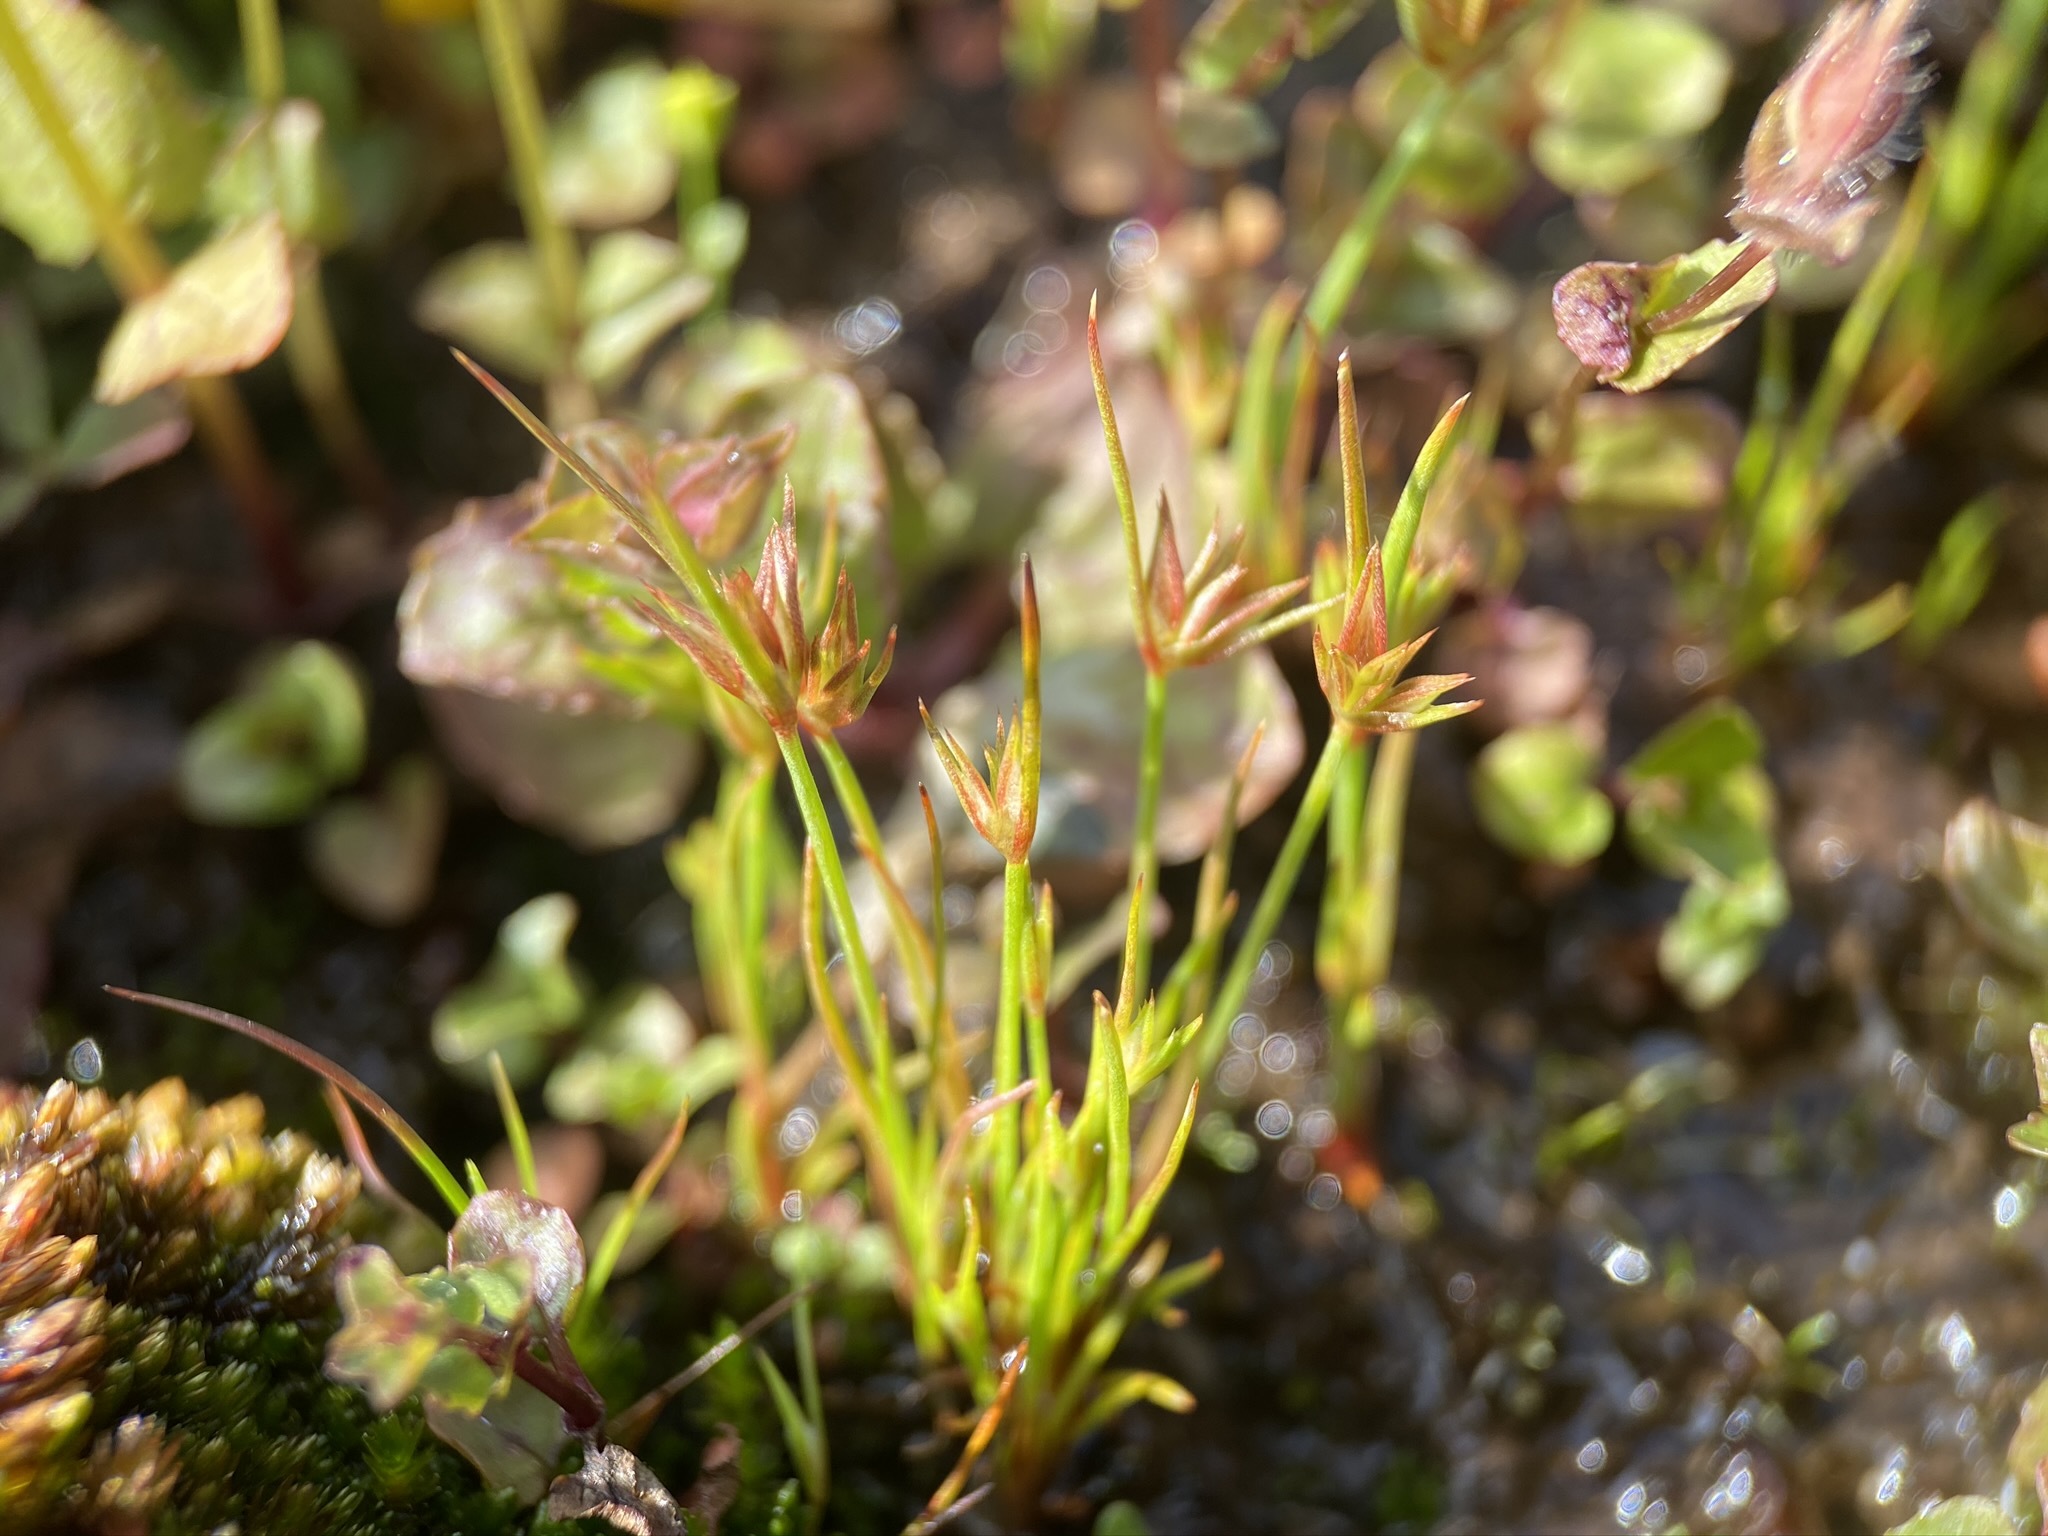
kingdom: Plantae
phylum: Tracheophyta
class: Liliopsida
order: Poales
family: Juncaceae
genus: Juncus
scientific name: Juncus capitatus
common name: Dwarf rush
